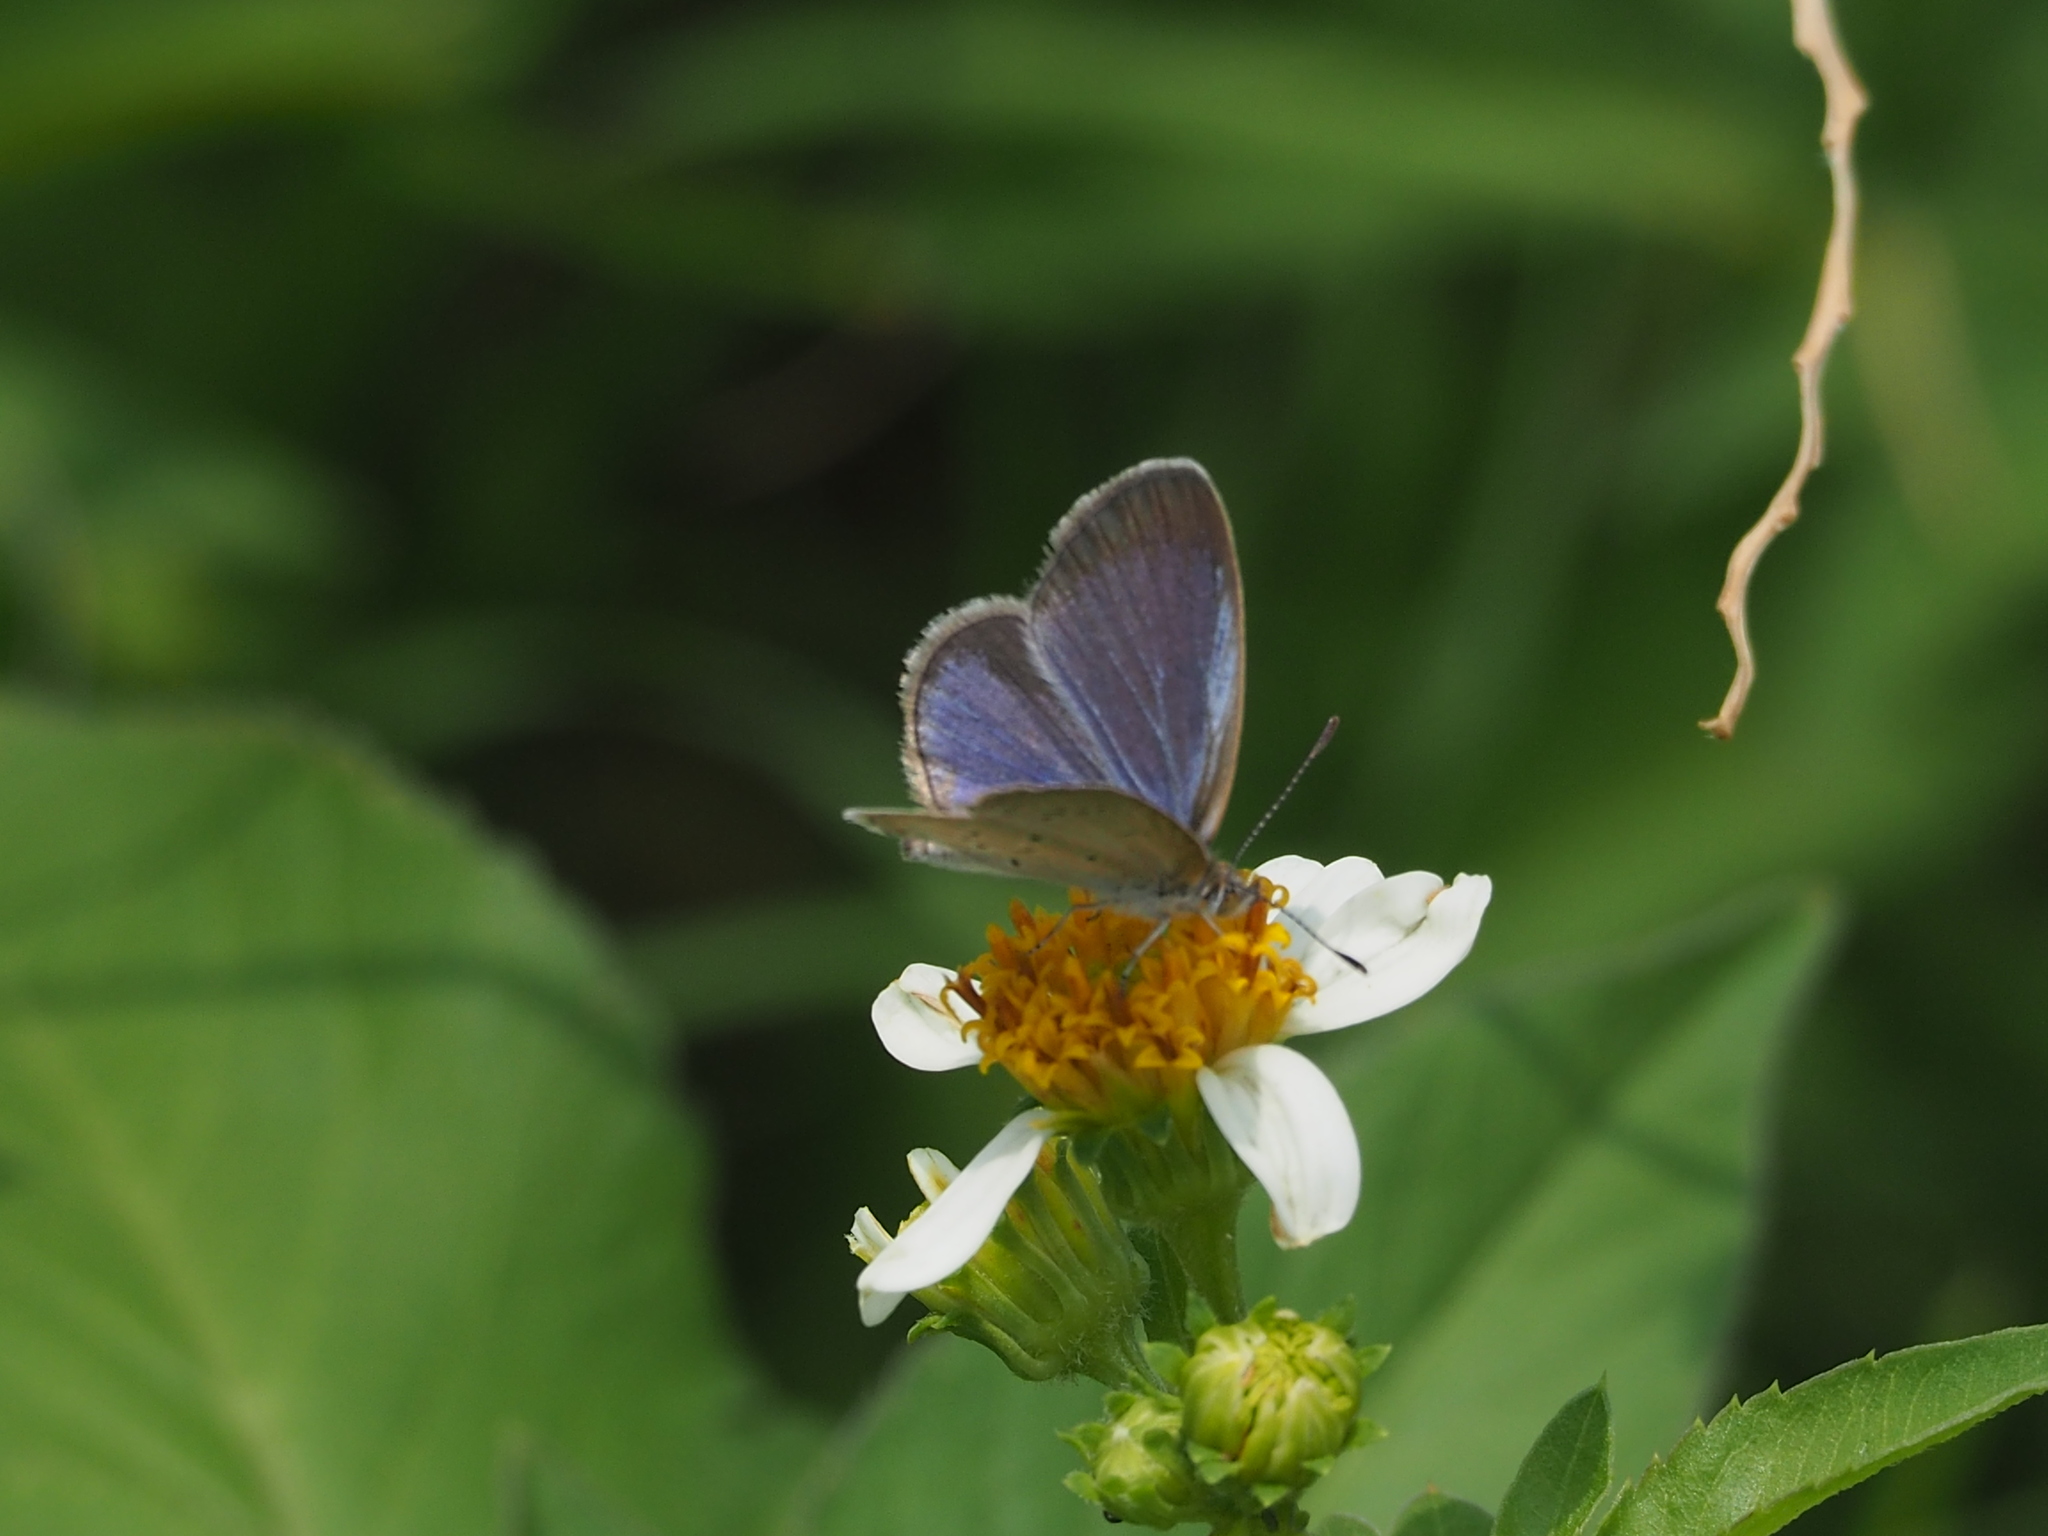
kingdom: Animalia
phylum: Arthropoda
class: Insecta
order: Lepidoptera
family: Lycaenidae
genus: Pseudozizeeria
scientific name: Pseudozizeeria maha
